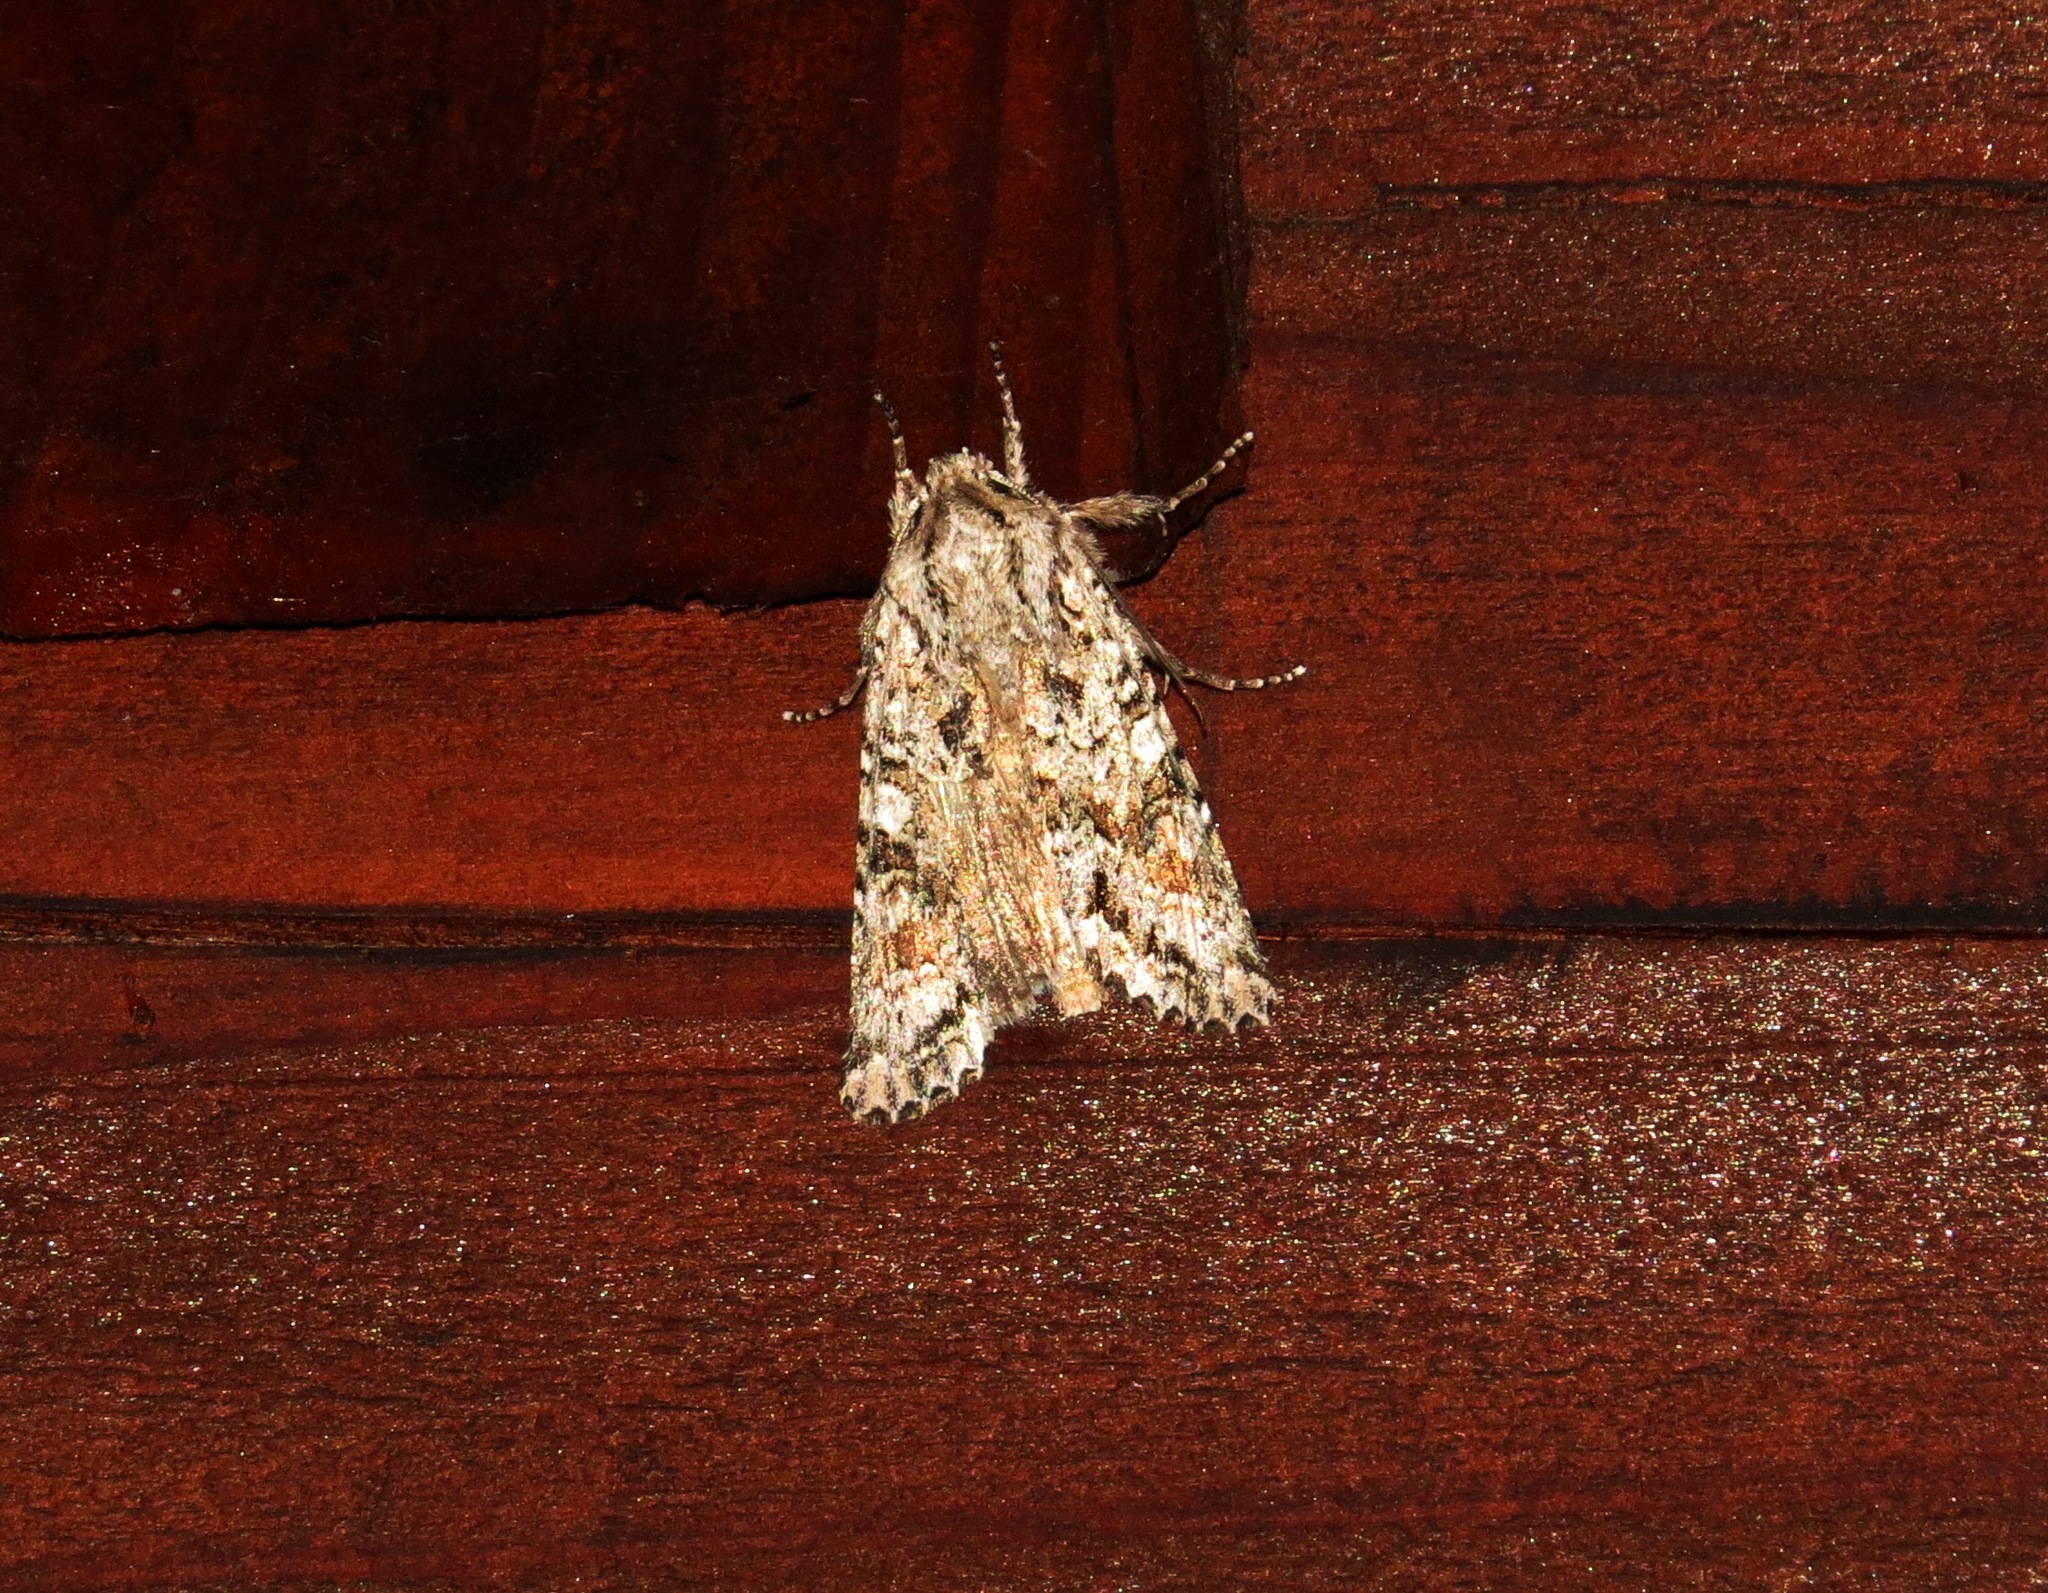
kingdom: Animalia
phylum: Arthropoda
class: Insecta
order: Lepidoptera
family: Noctuidae
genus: Ichneutica
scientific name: Ichneutica mutans
